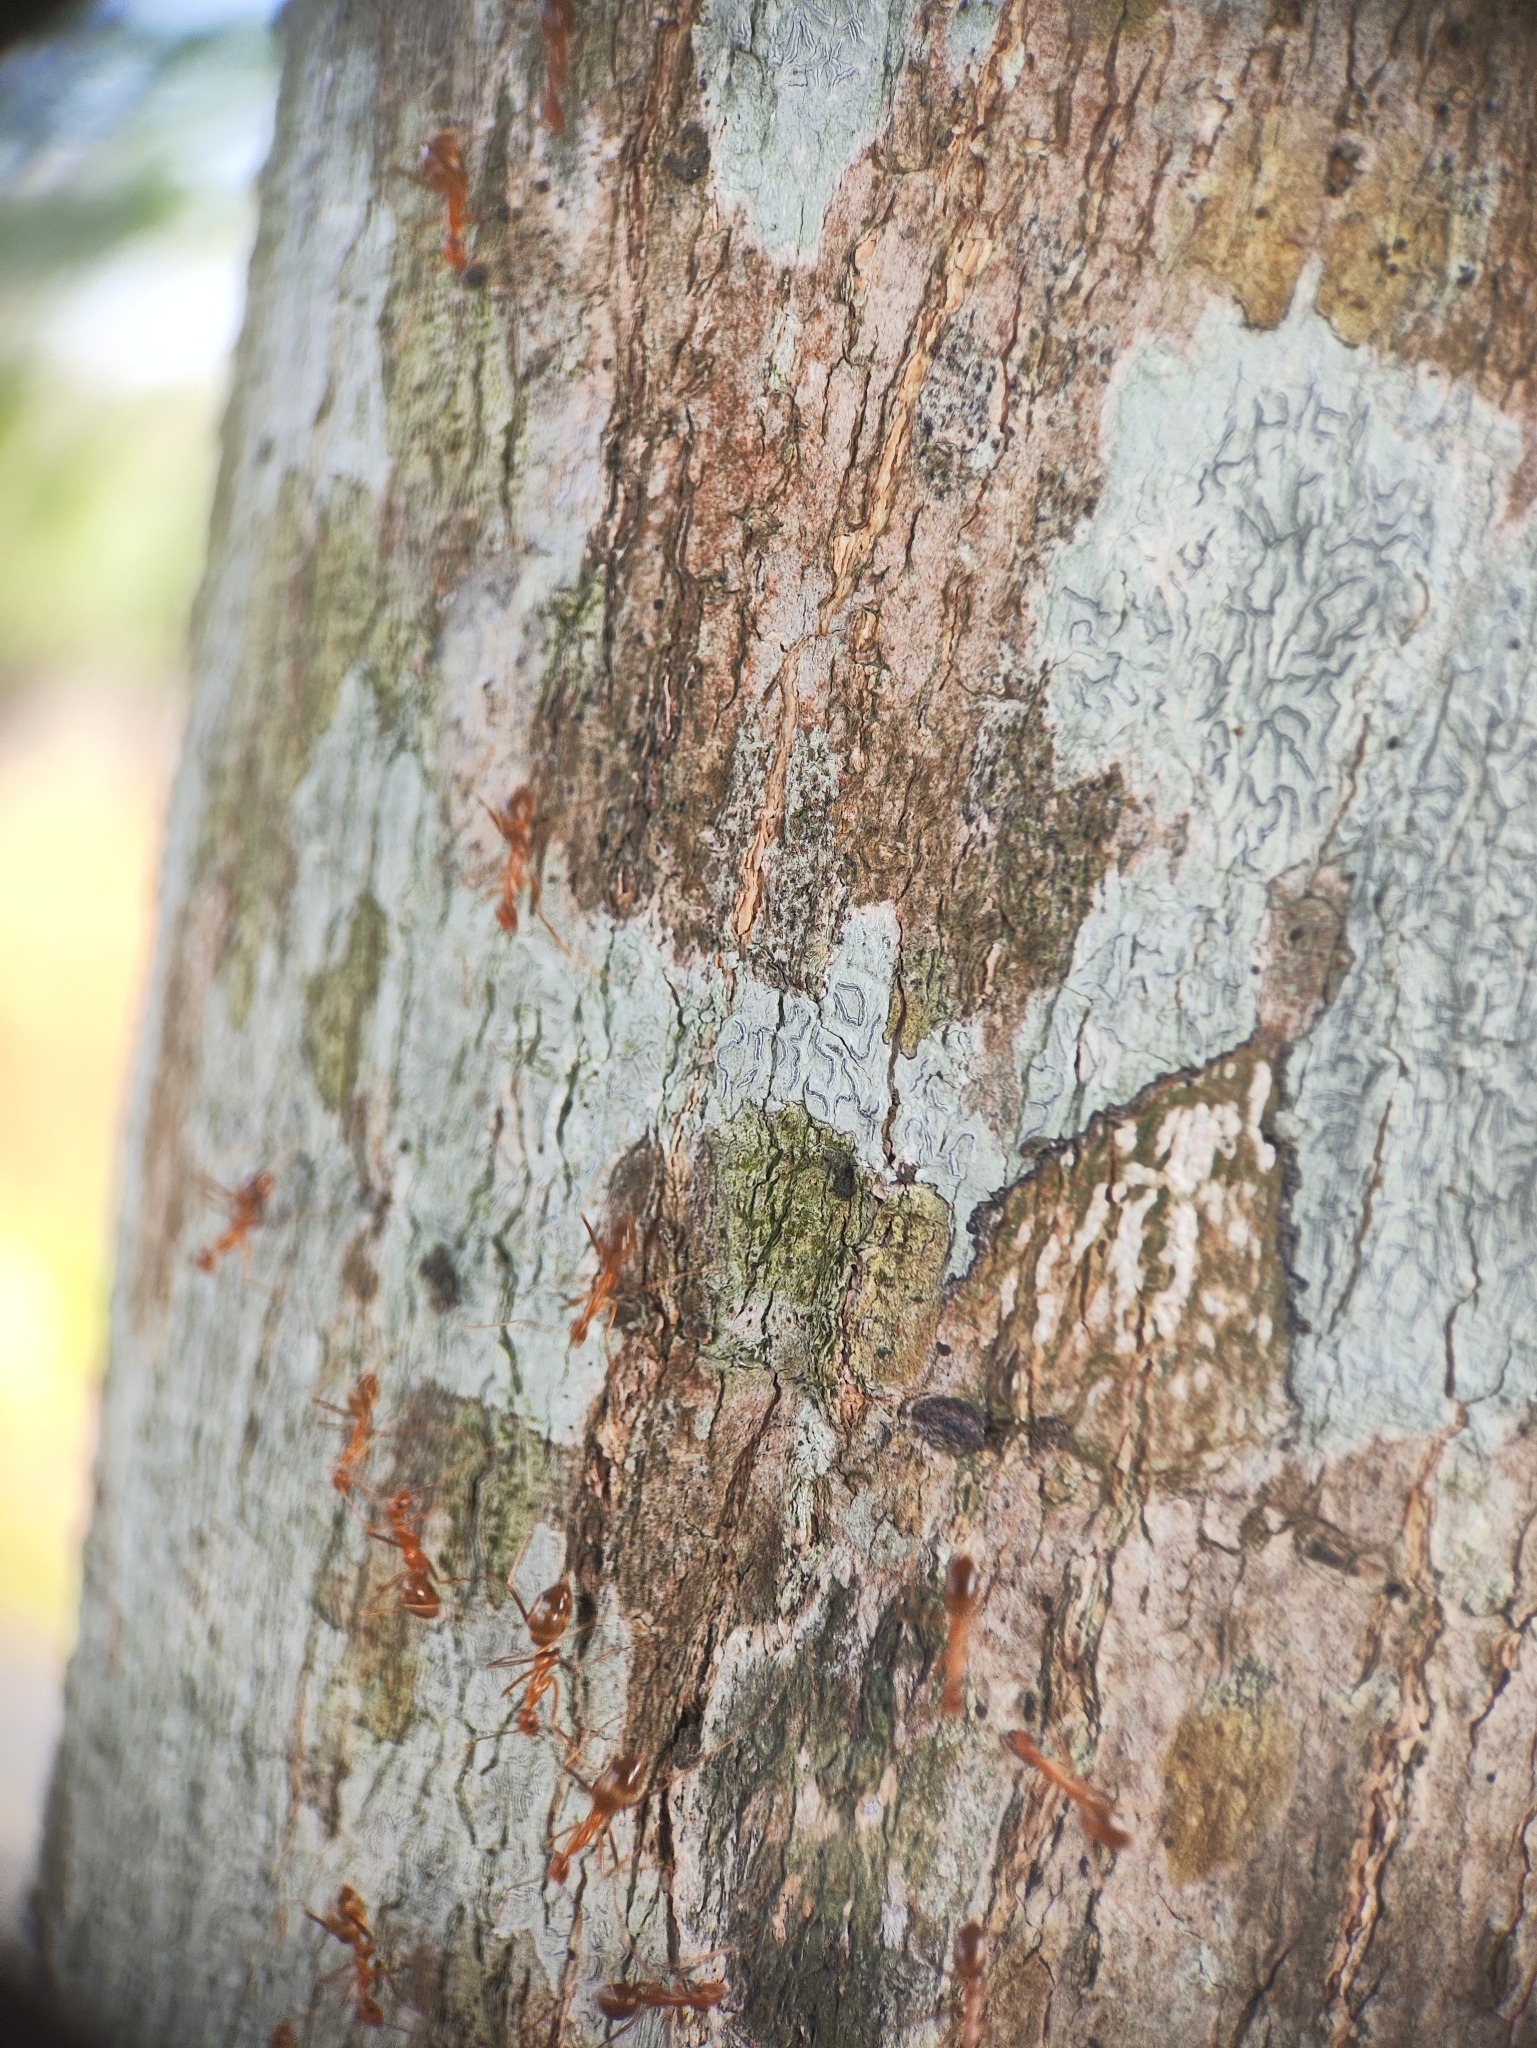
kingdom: Animalia
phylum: Arthropoda
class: Insecta
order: Hymenoptera
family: Formicidae
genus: Anoplolepis
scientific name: Anoplolepis gracilipes
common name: Ant
